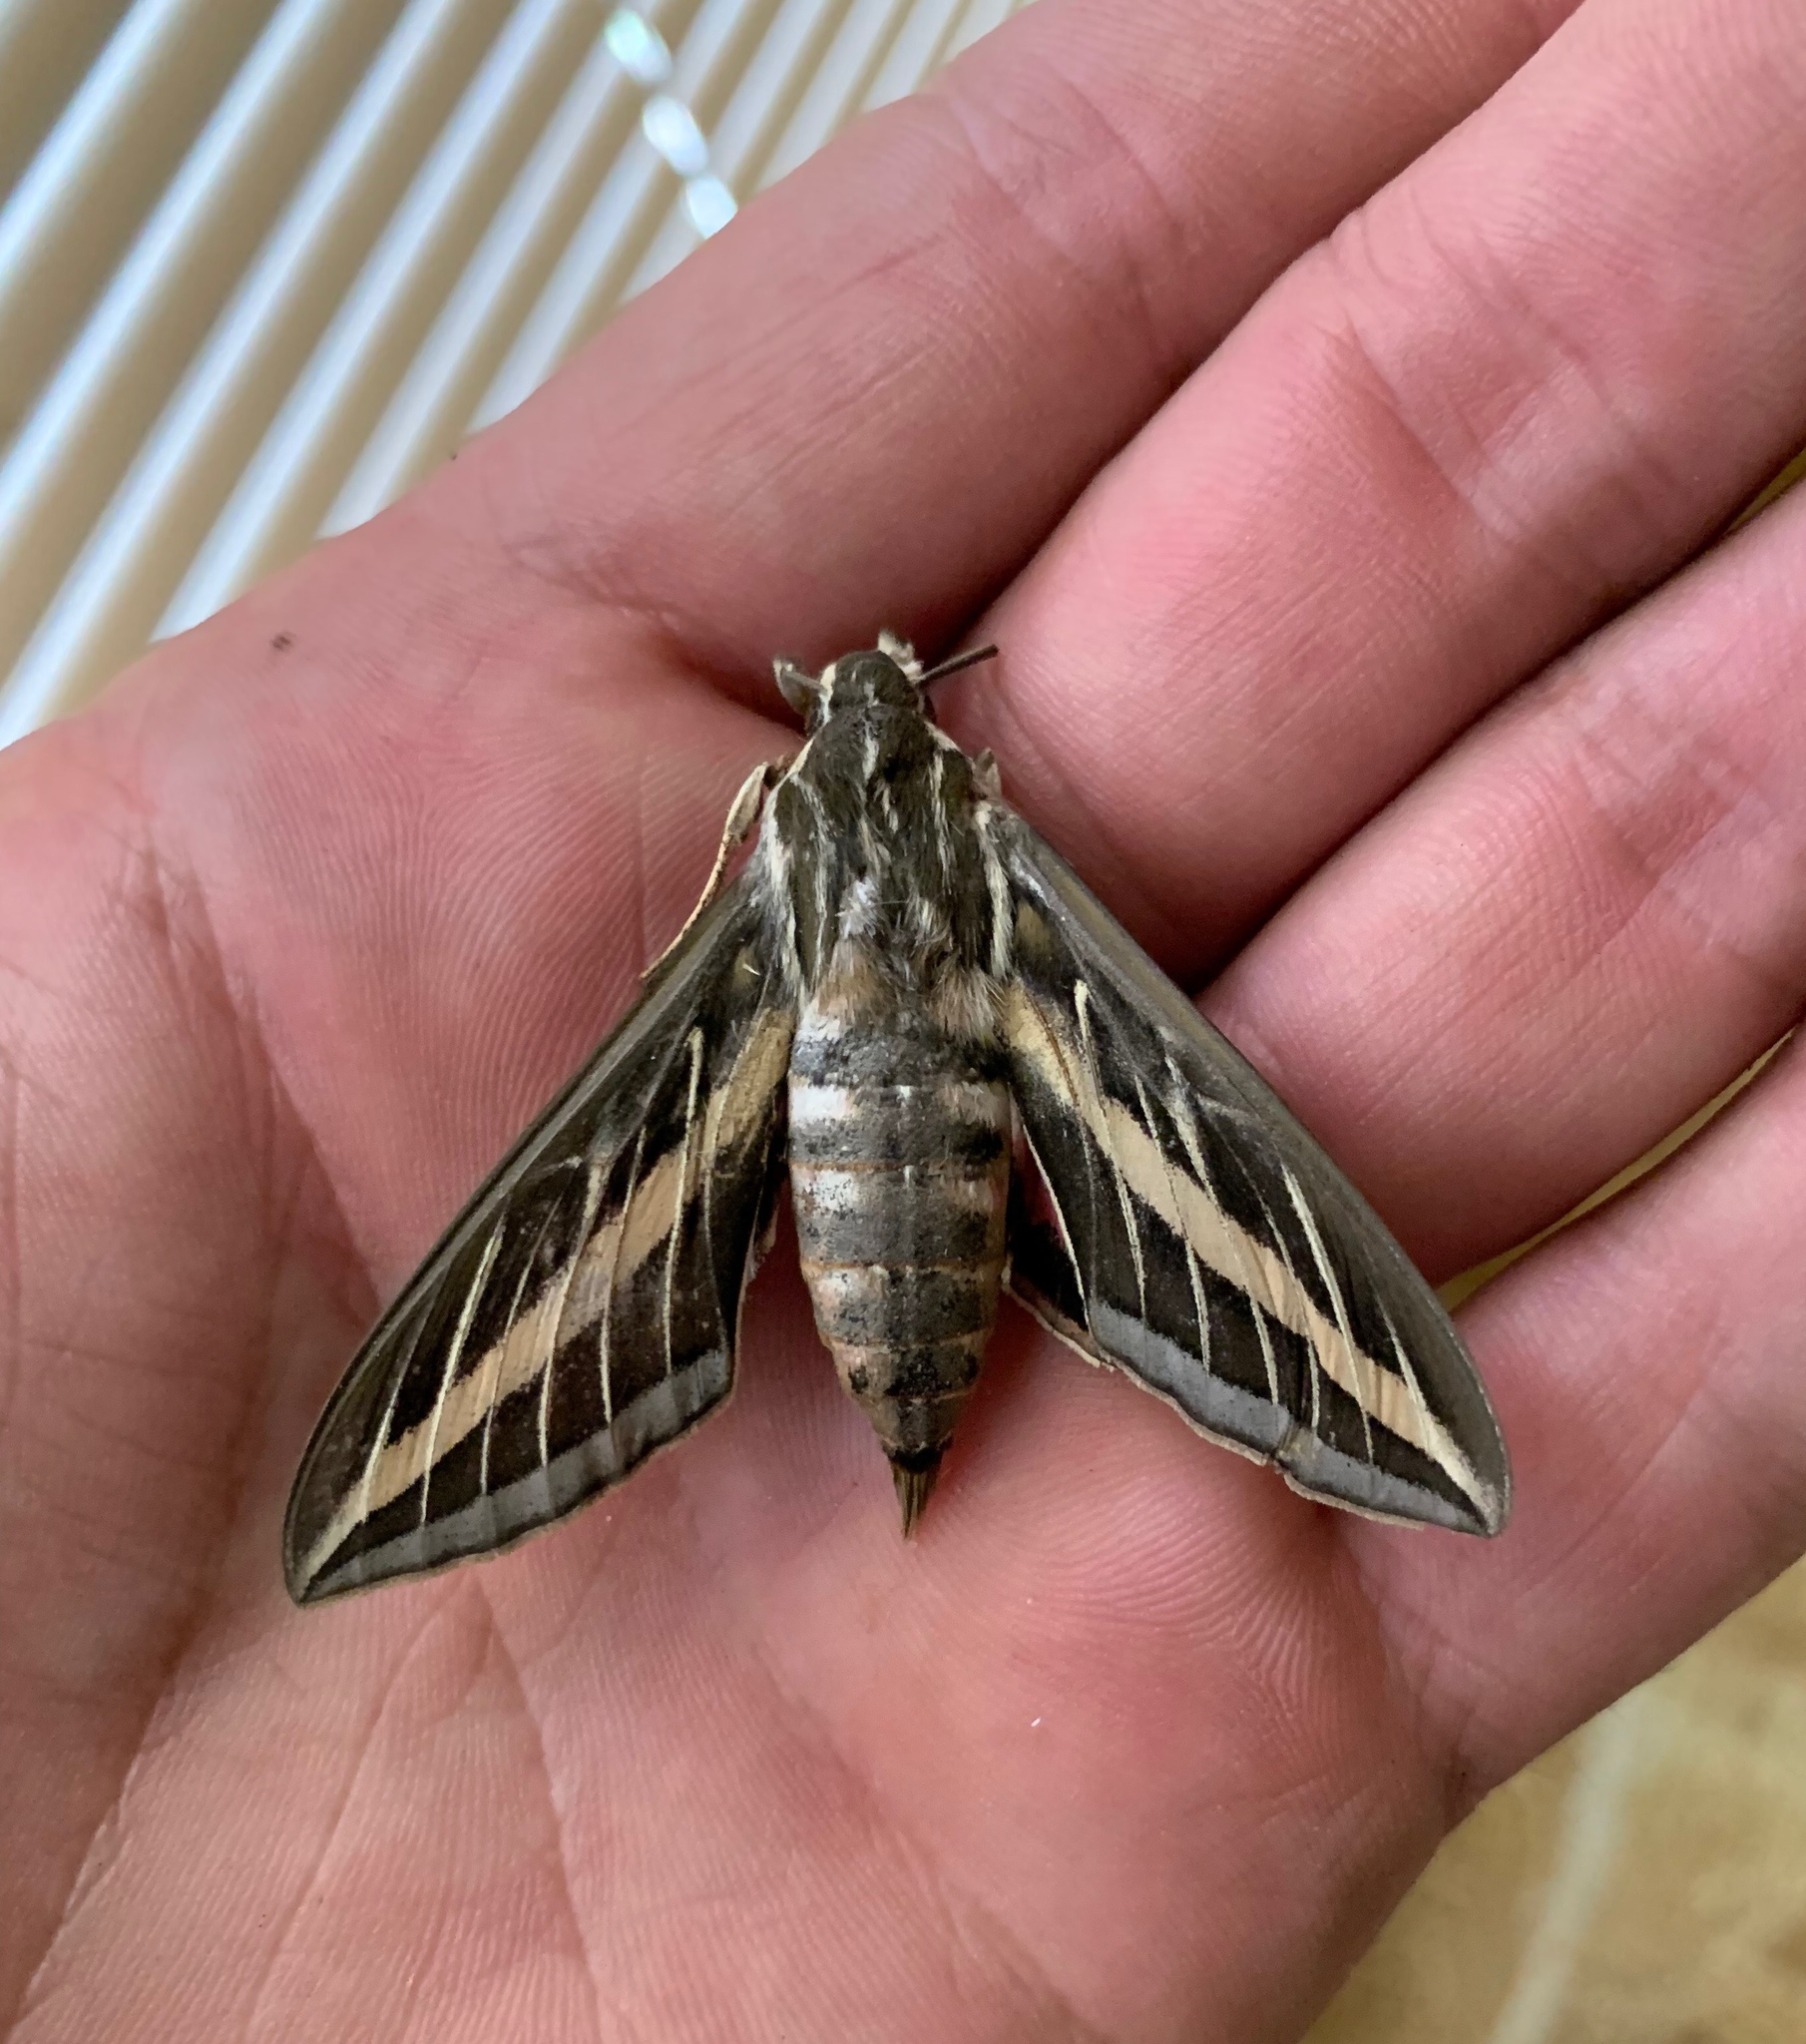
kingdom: Animalia
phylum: Arthropoda
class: Insecta
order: Lepidoptera
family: Sphingidae
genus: Hyles
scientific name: Hyles lineata
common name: White-lined sphinx
